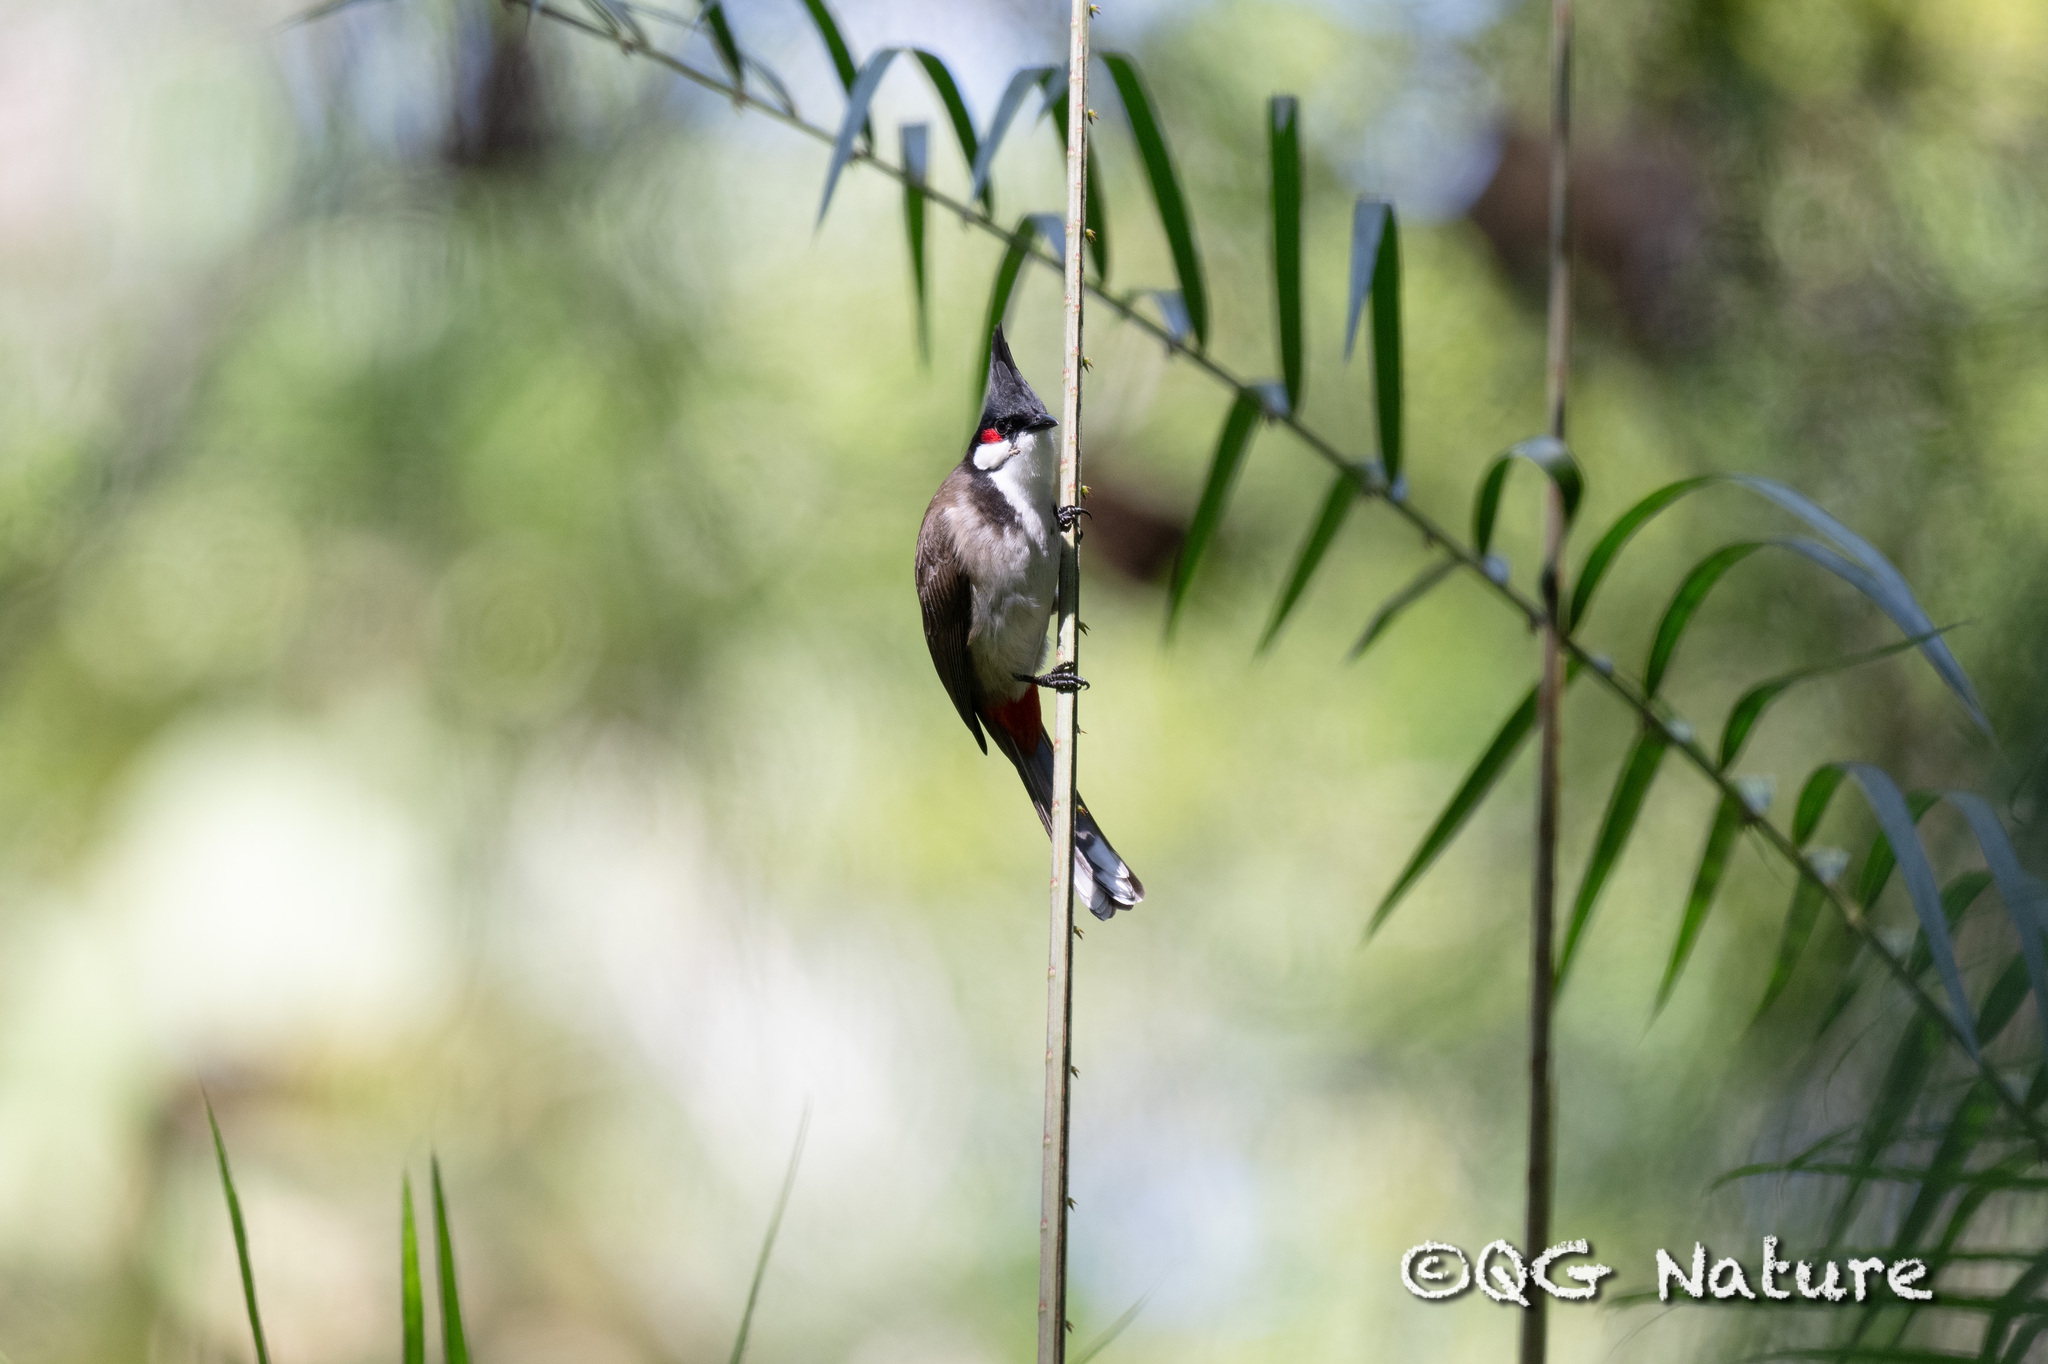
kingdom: Animalia
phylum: Chordata
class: Aves
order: Passeriformes
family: Pycnonotidae
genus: Pycnonotus
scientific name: Pycnonotus jocosus
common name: Red-whiskered bulbul
